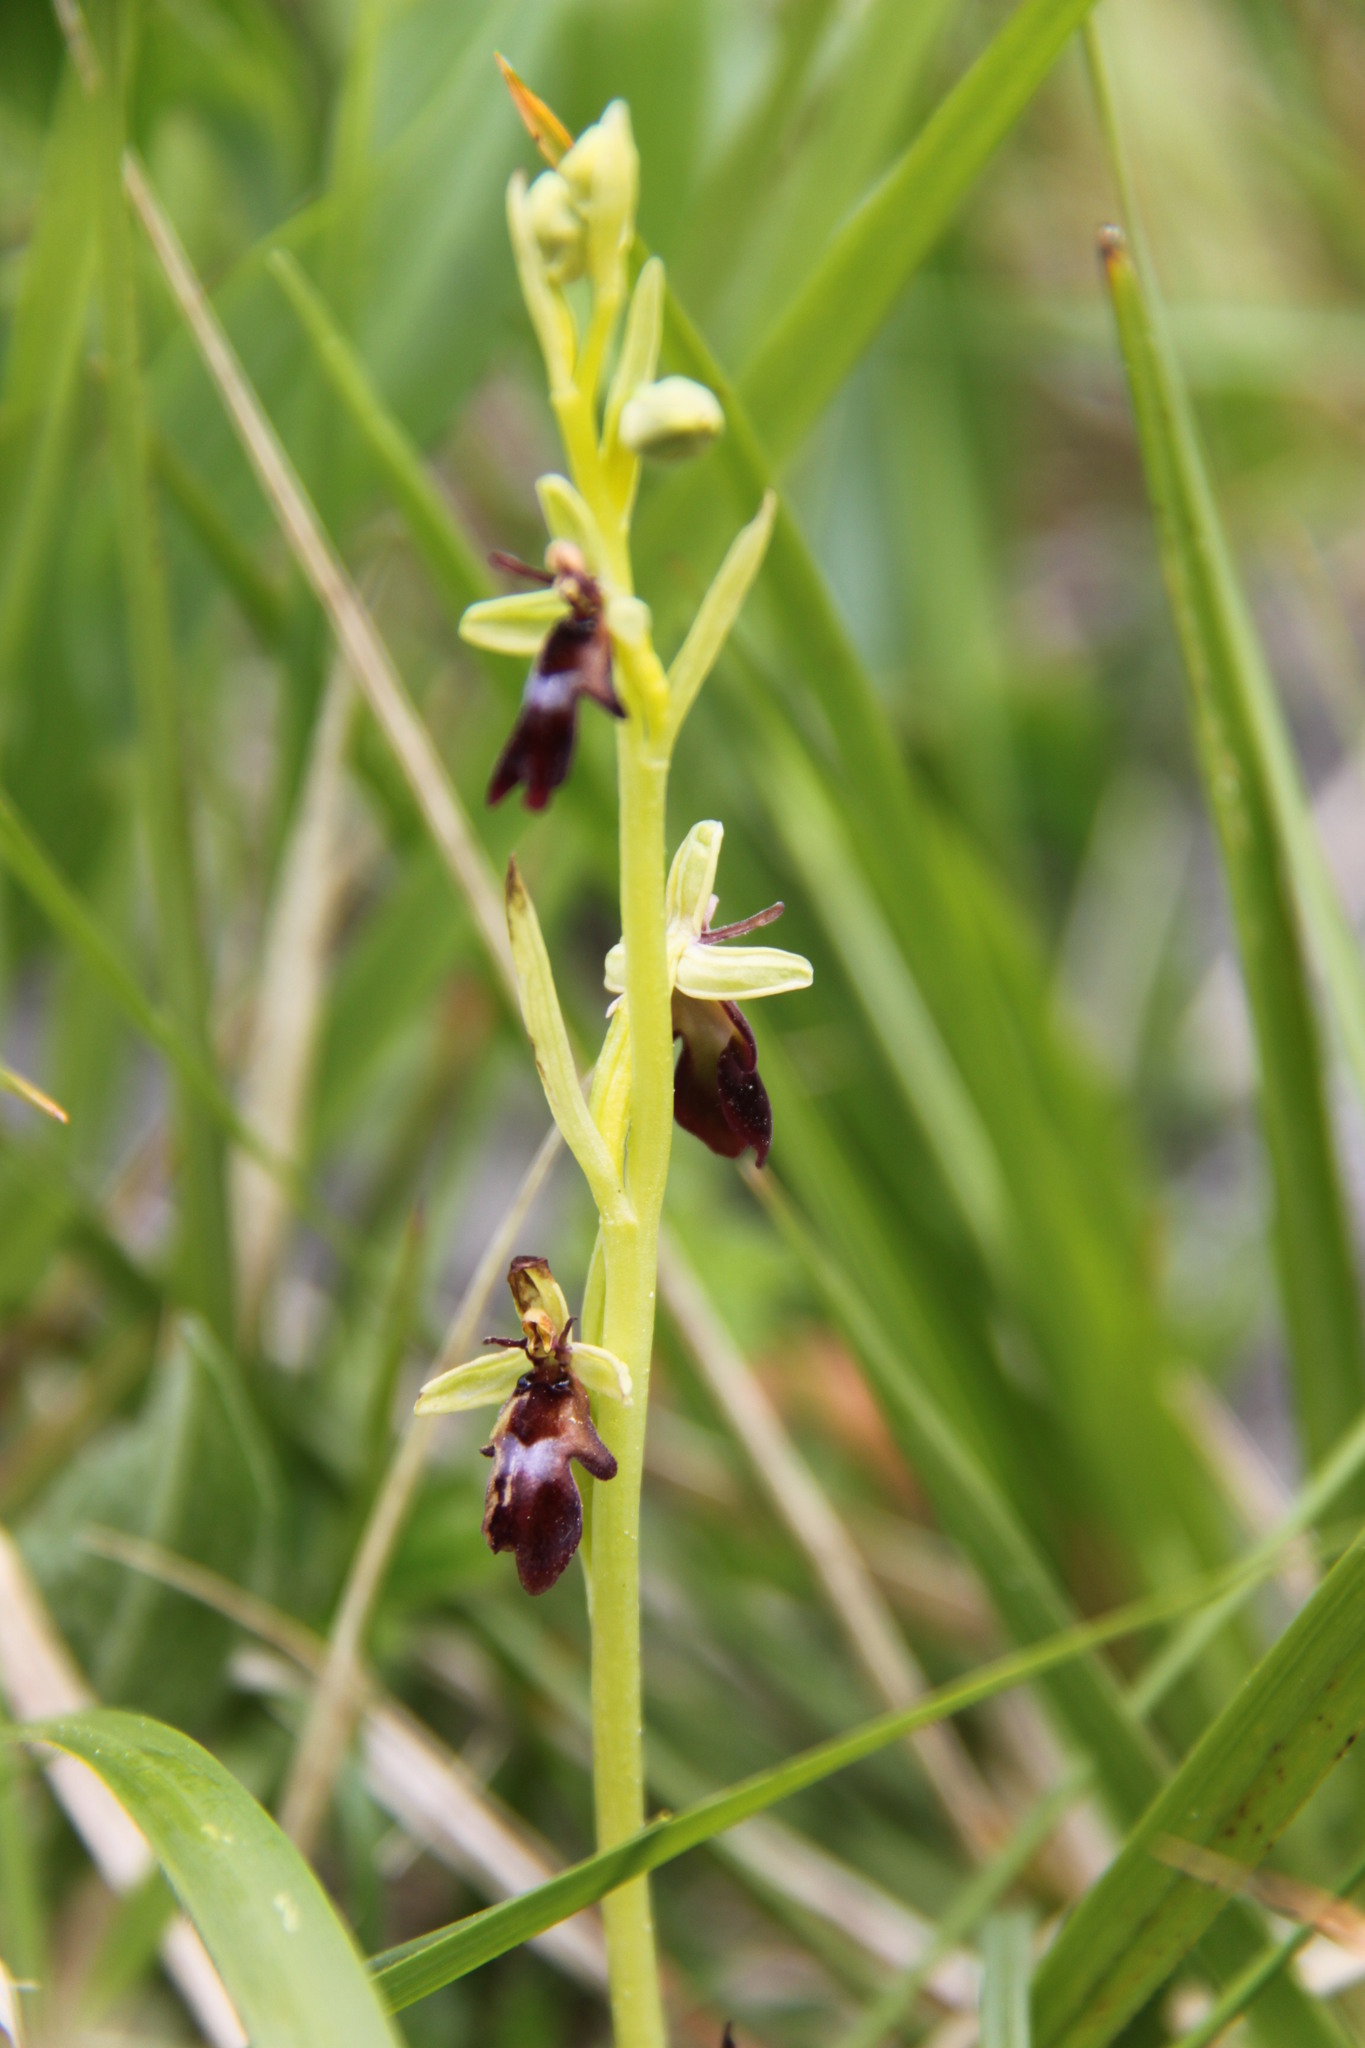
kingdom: Plantae
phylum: Tracheophyta
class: Liliopsida
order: Asparagales
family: Orchidaceae
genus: Ophrys
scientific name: Ophrys insectifera
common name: Fly orchid
